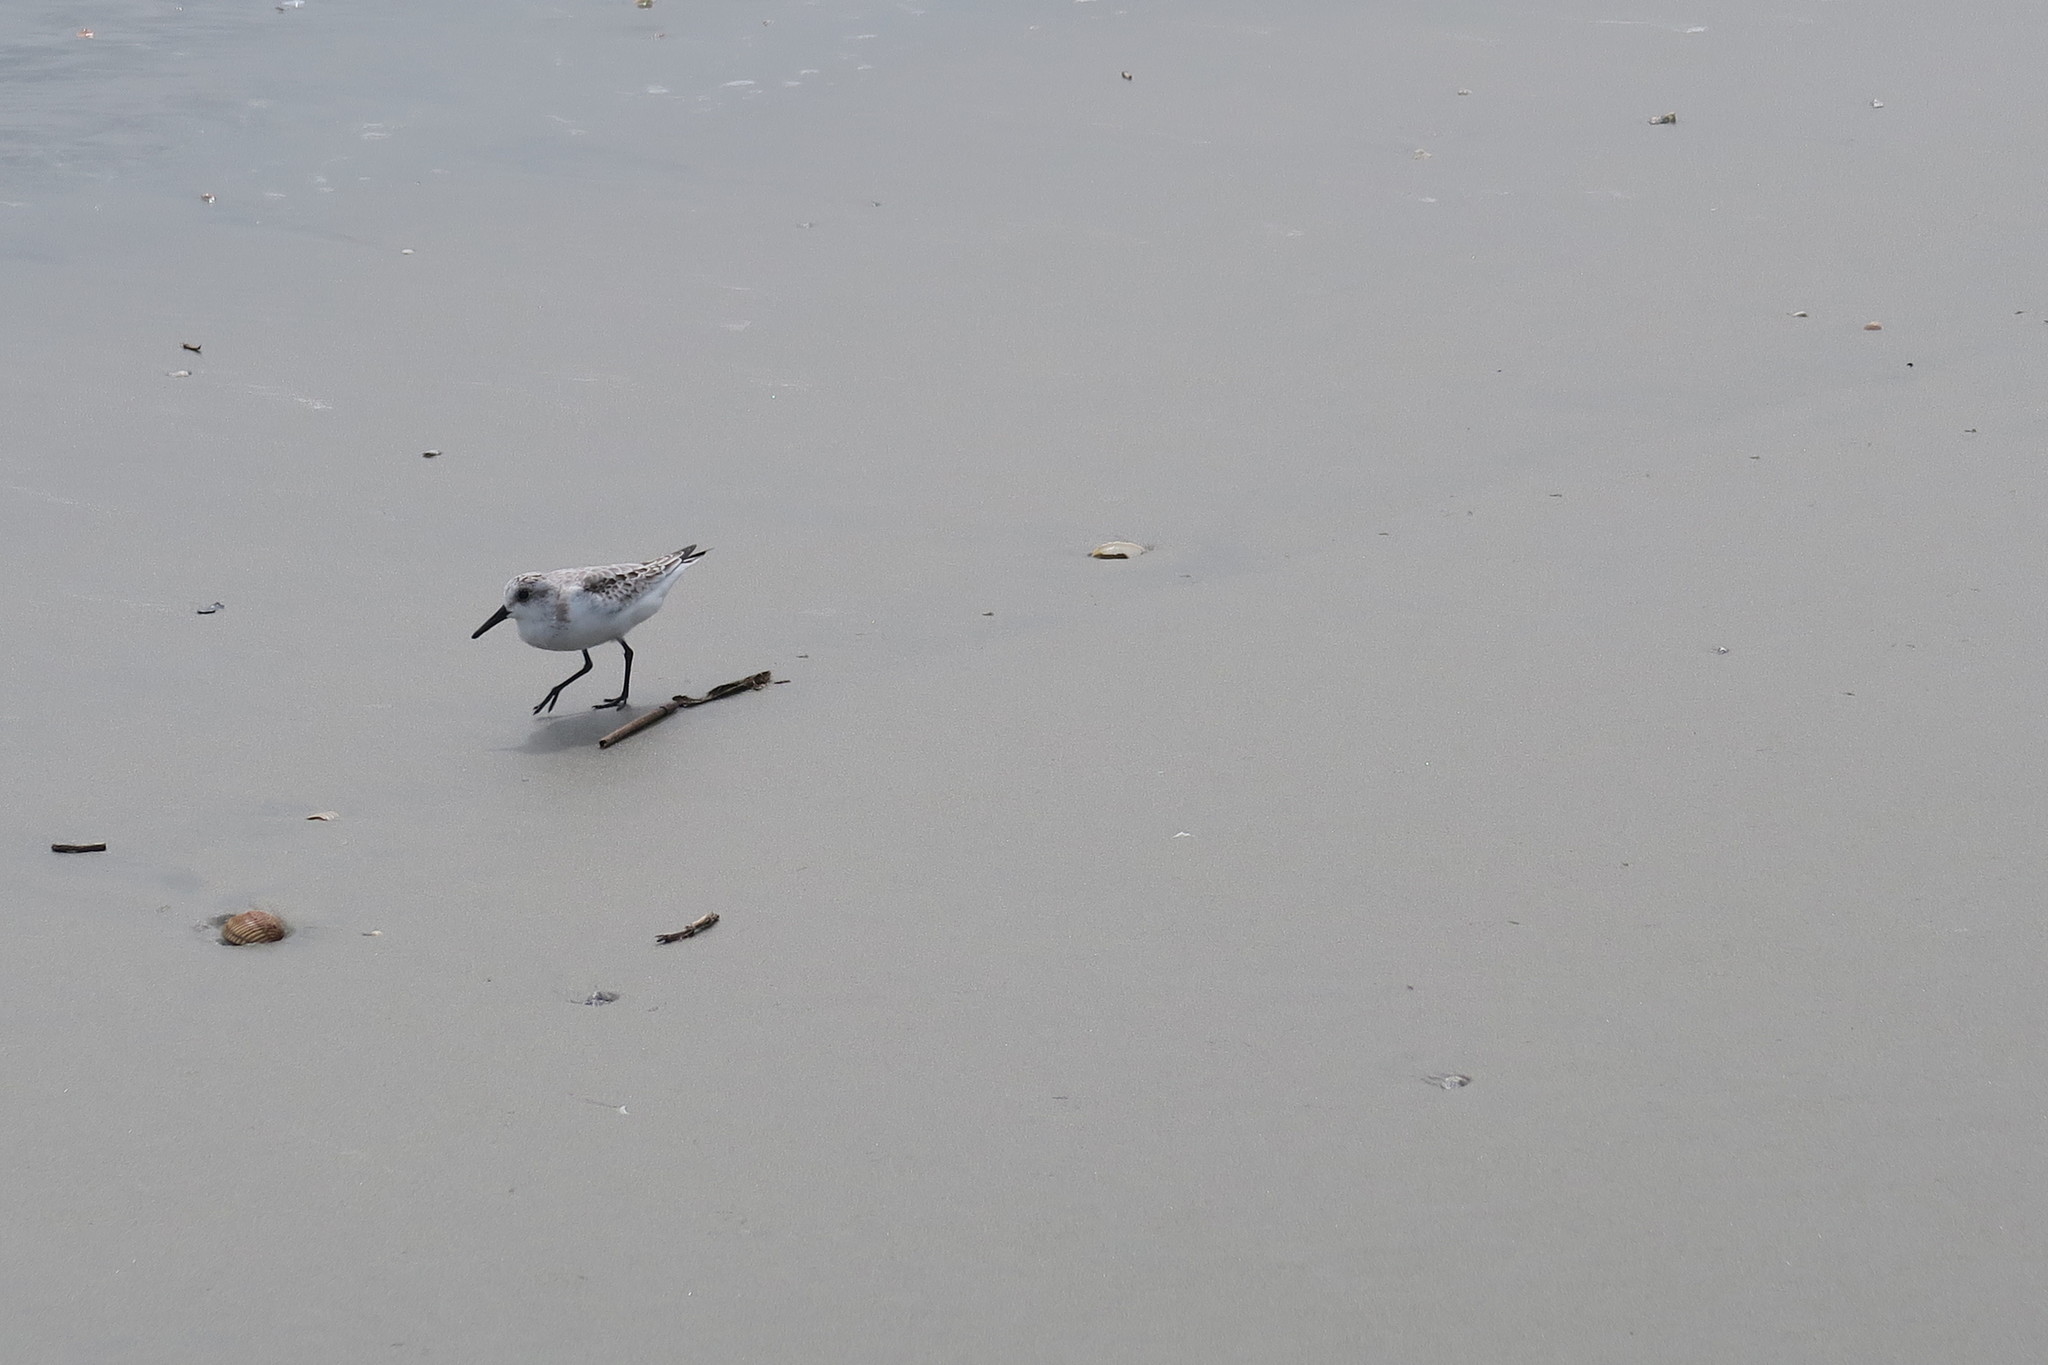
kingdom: Animalia
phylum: Chordata
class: Aves
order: Charadriiformes
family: Scolopacidae
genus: Calidris
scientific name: Calidris alba
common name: Sanderling
